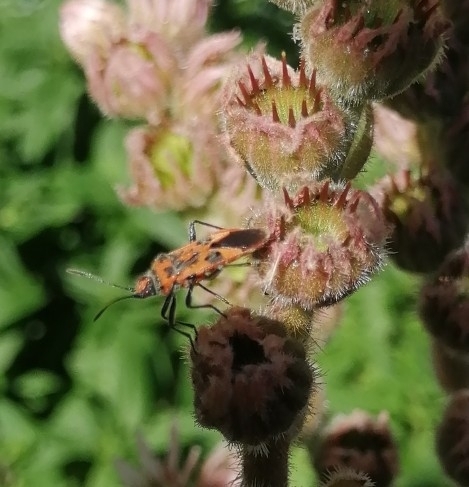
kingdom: Animalia
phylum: Arthropoda
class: Insecta
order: Hemiptera
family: Rhopalidae
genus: Corizus
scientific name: Corizus hyoscyami
